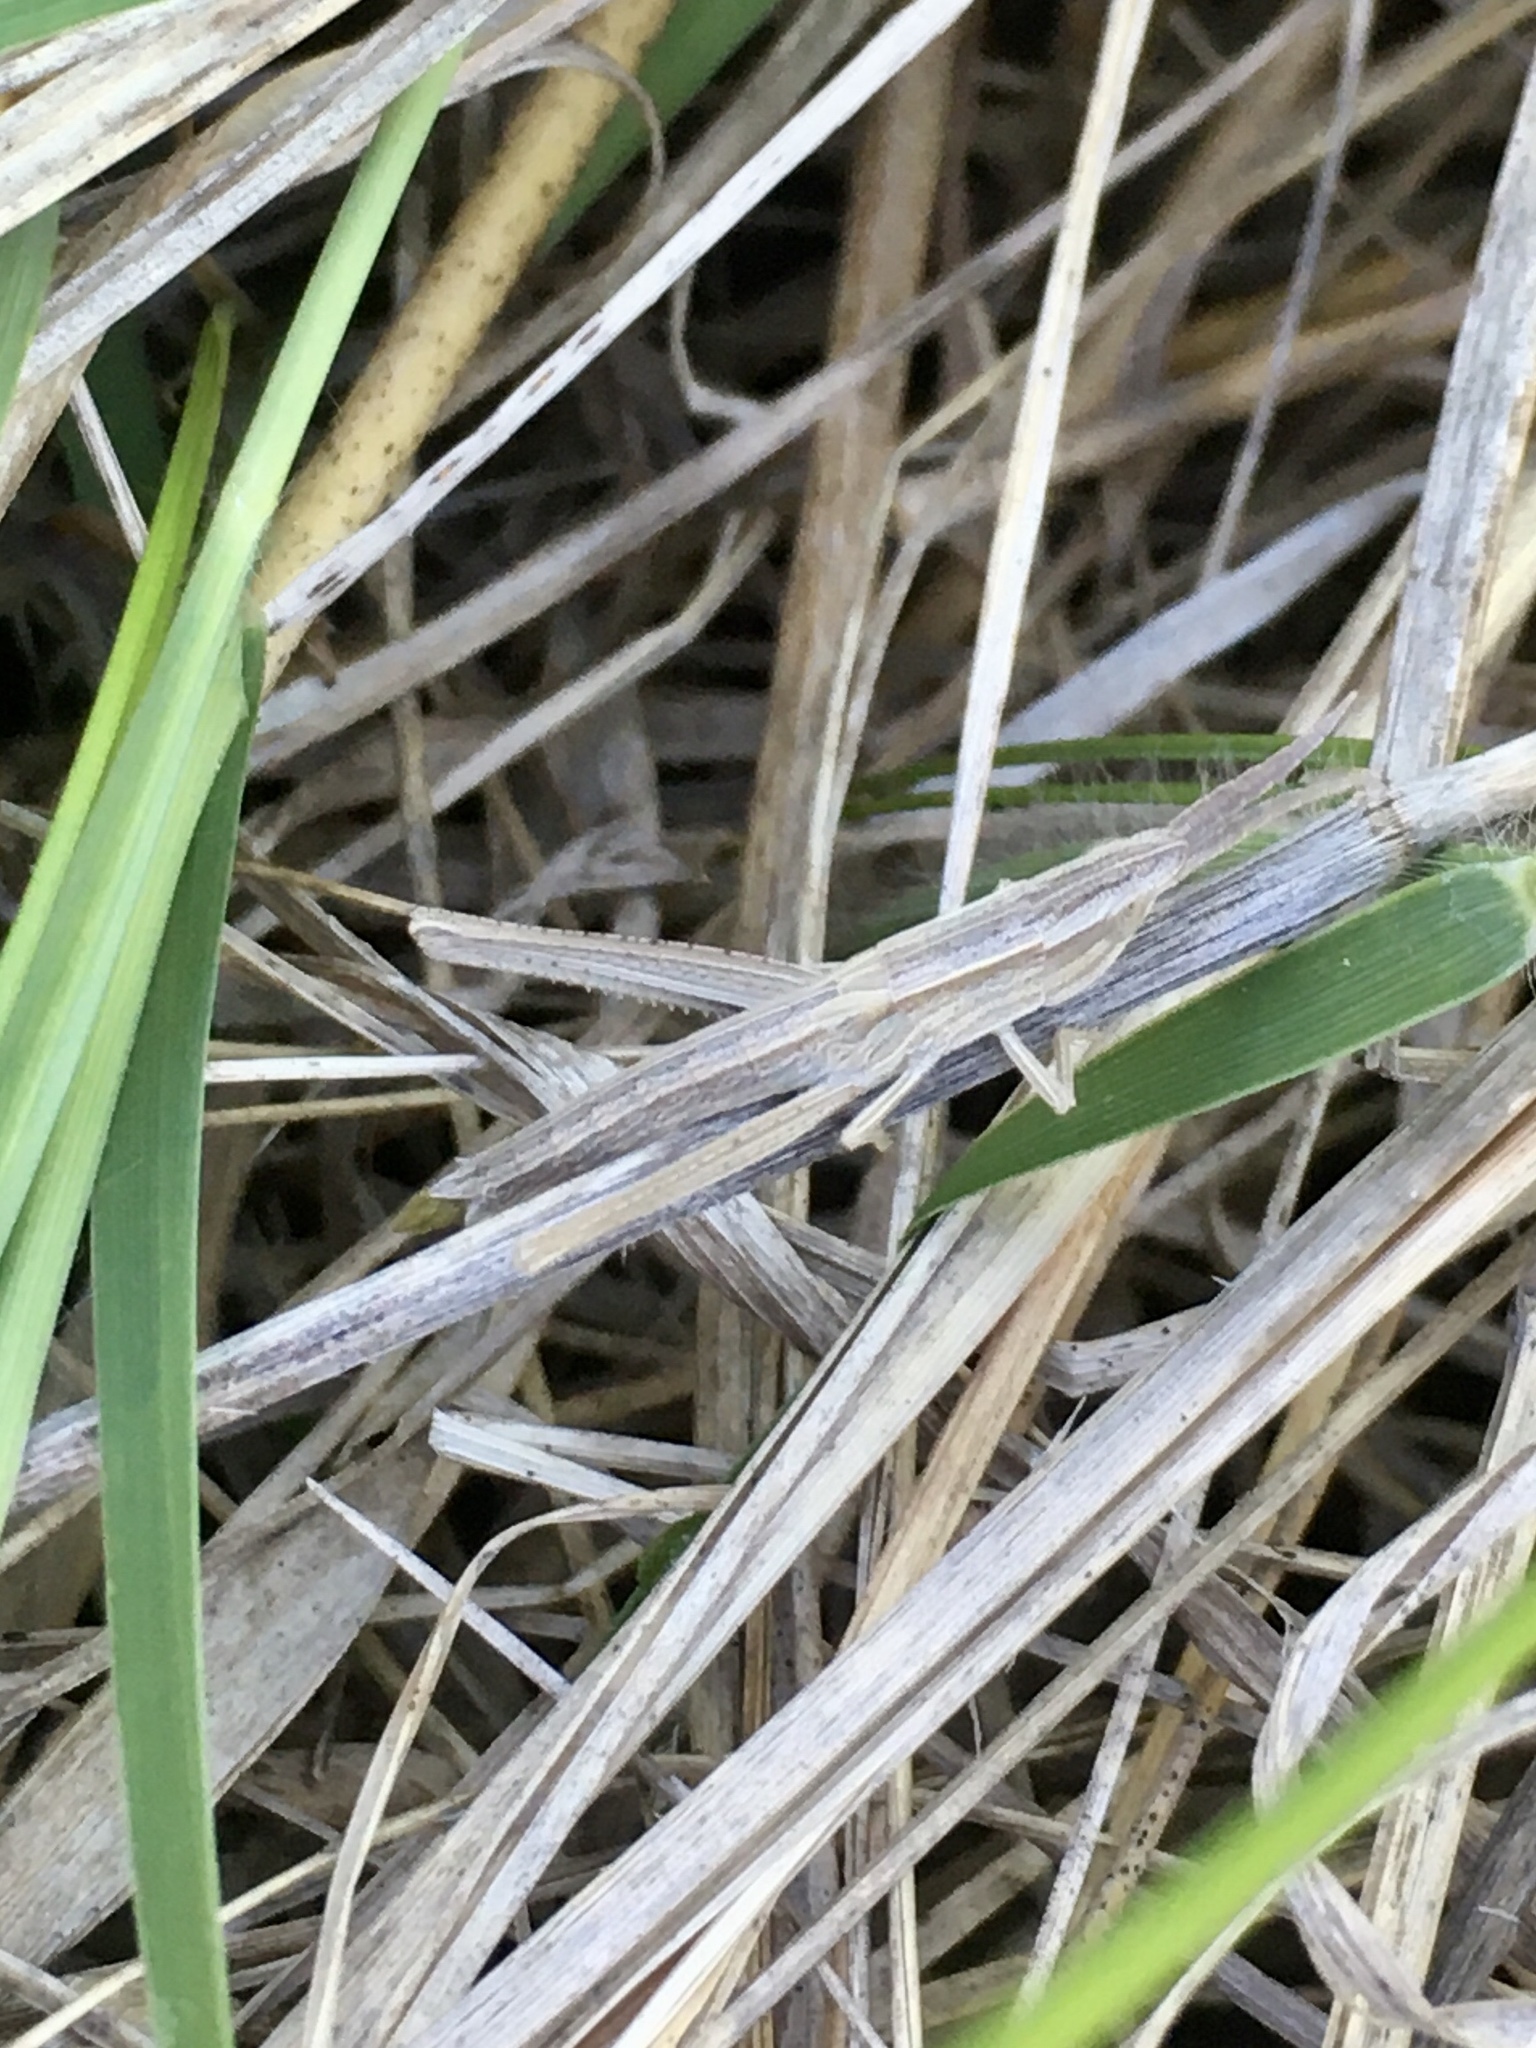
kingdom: Animalia
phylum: Arthropoda
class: Insecta
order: Orthoptera
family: Acrididae
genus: Pseudopomala
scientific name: Pseudopomala brachyptera
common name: Bunchgrass grasshopper
